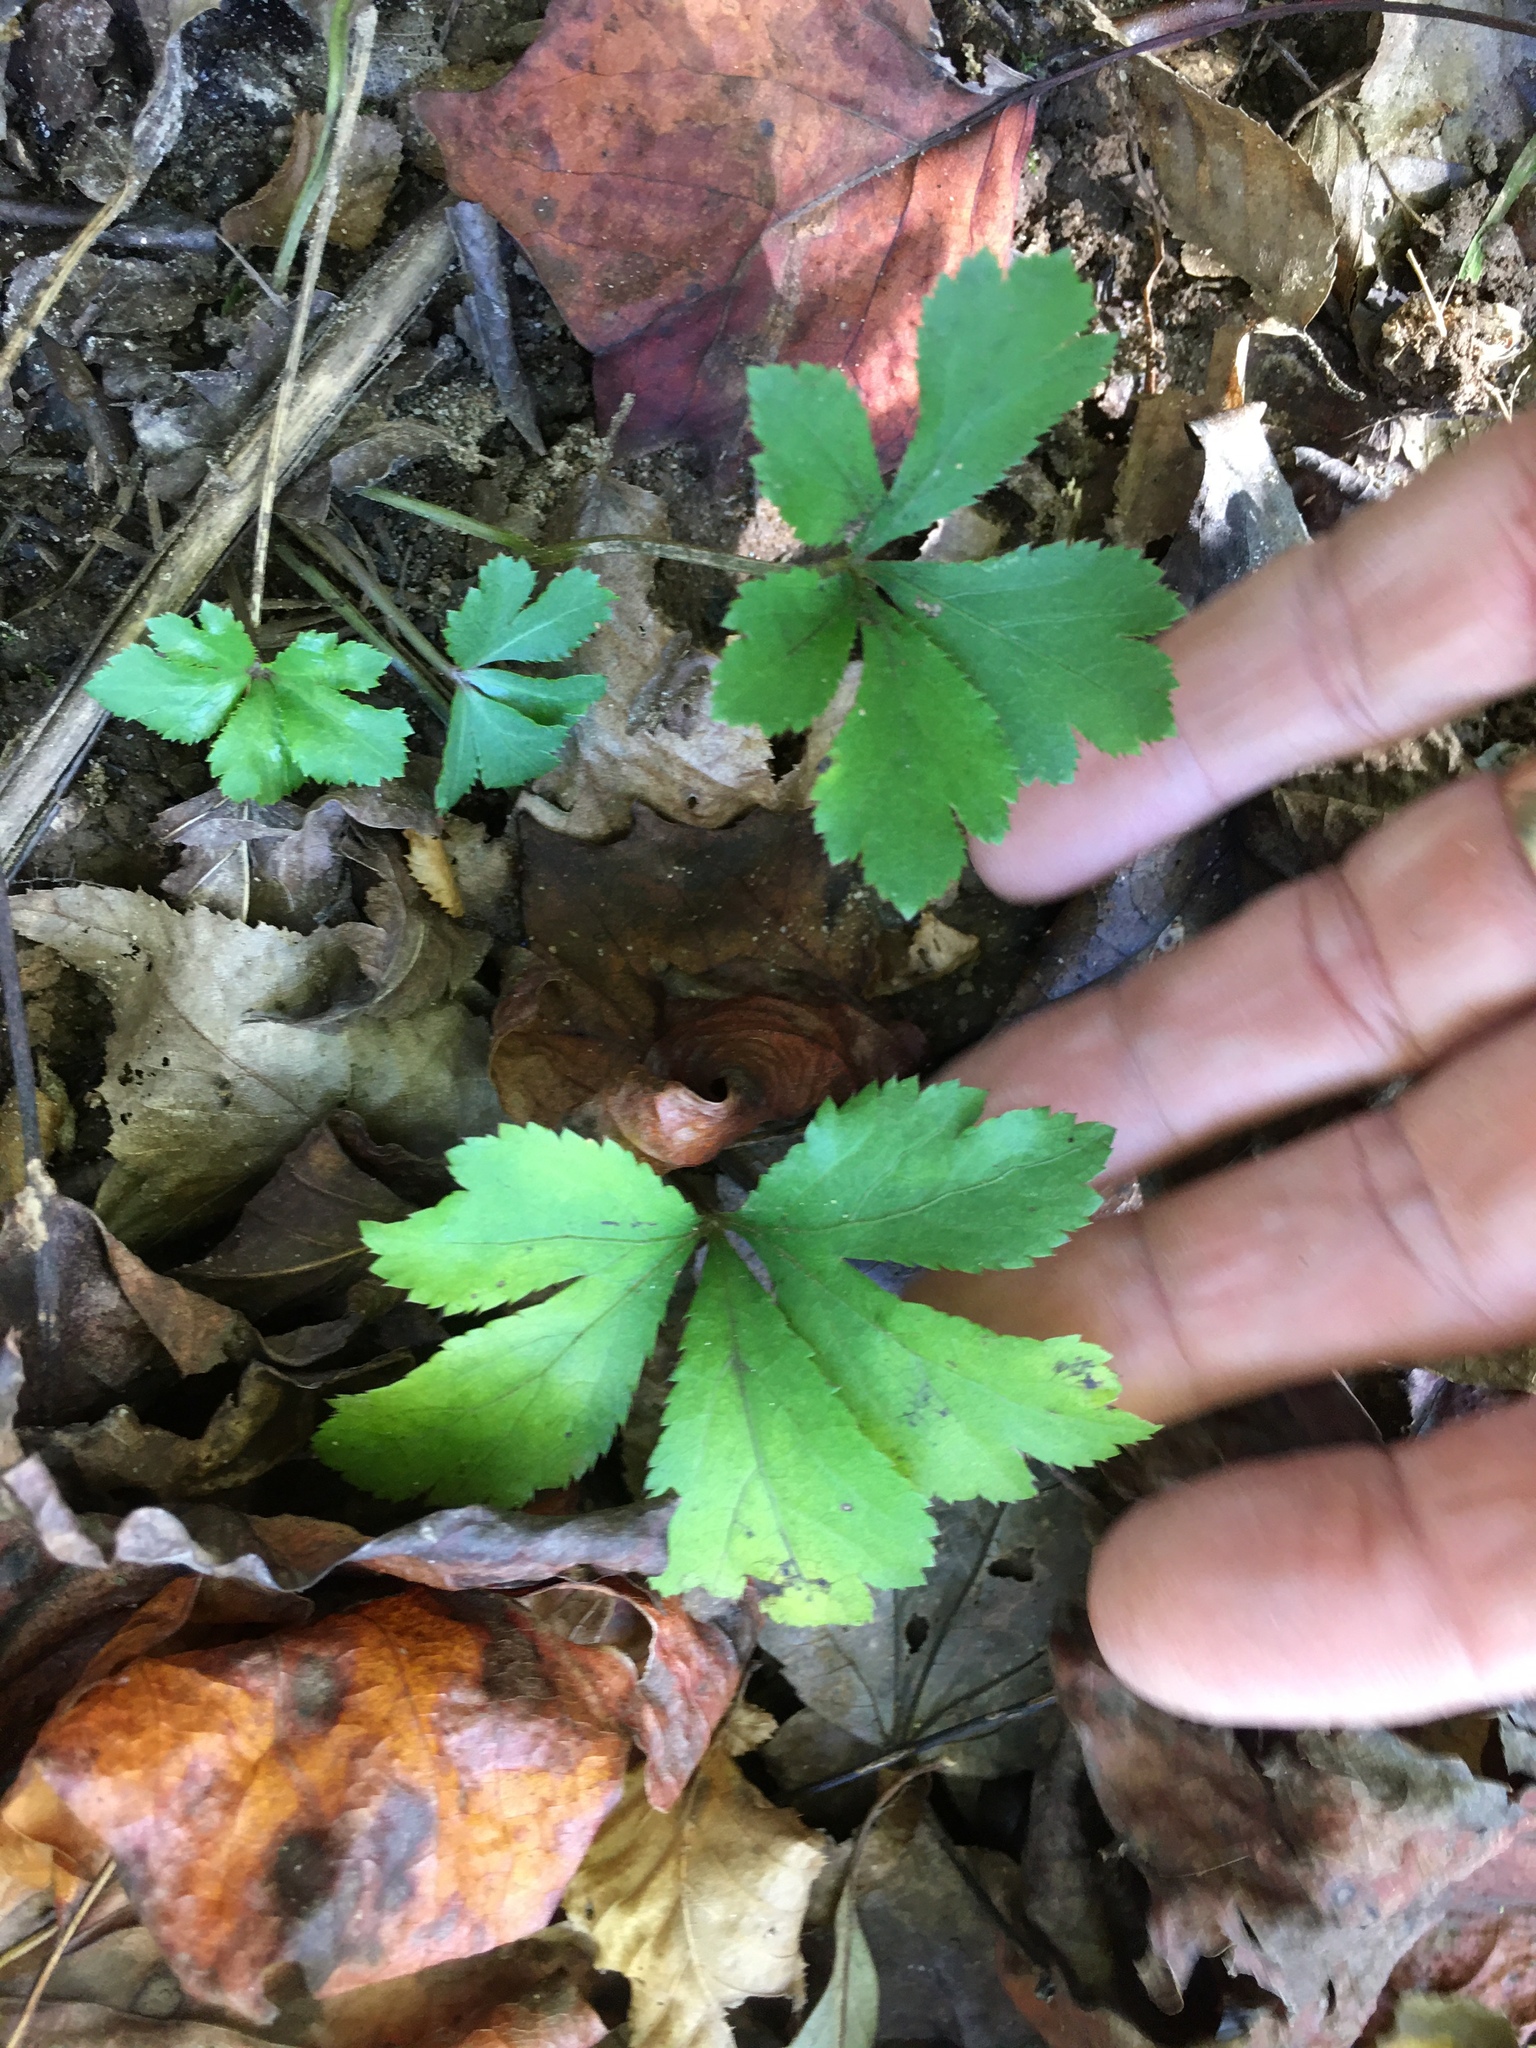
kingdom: Plantae
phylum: Tracheophyta
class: Magnoliopsida
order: Apiales
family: Apiaceae
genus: Sanicula
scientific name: Sanicula canadensis
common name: Canada sanicle
